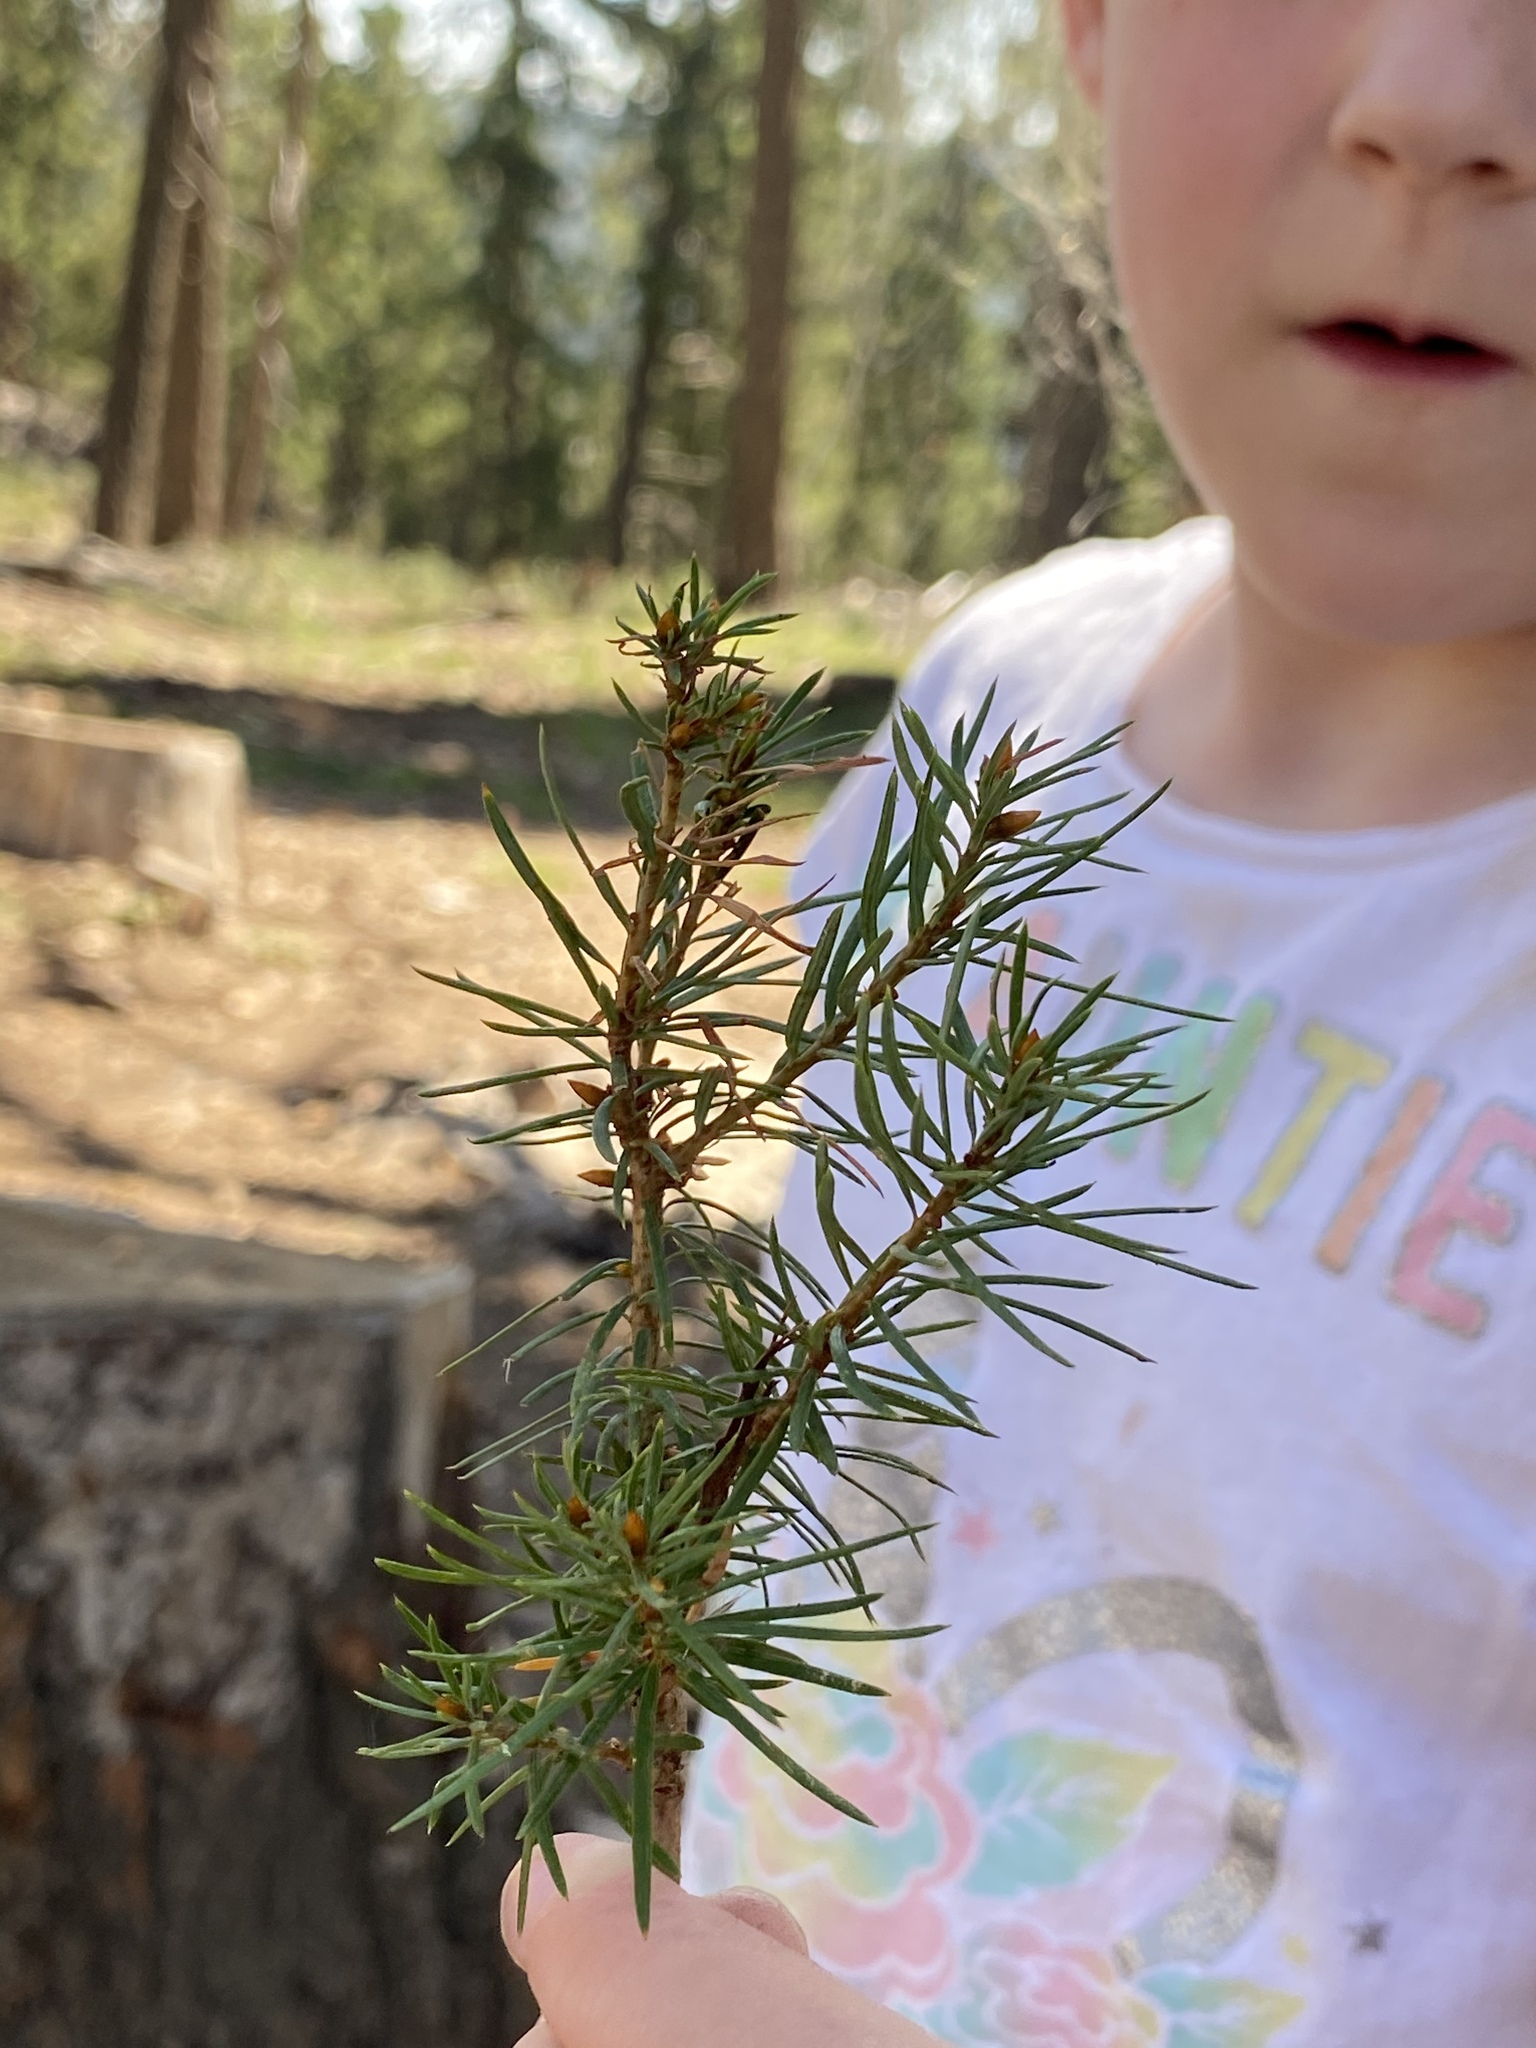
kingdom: Plantae
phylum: Tracheophyta
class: Pinopsida
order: Pinales
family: Pinaceae
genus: Pseudotsuga
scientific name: Pseudotsuga menziesii
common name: Douglas fir
